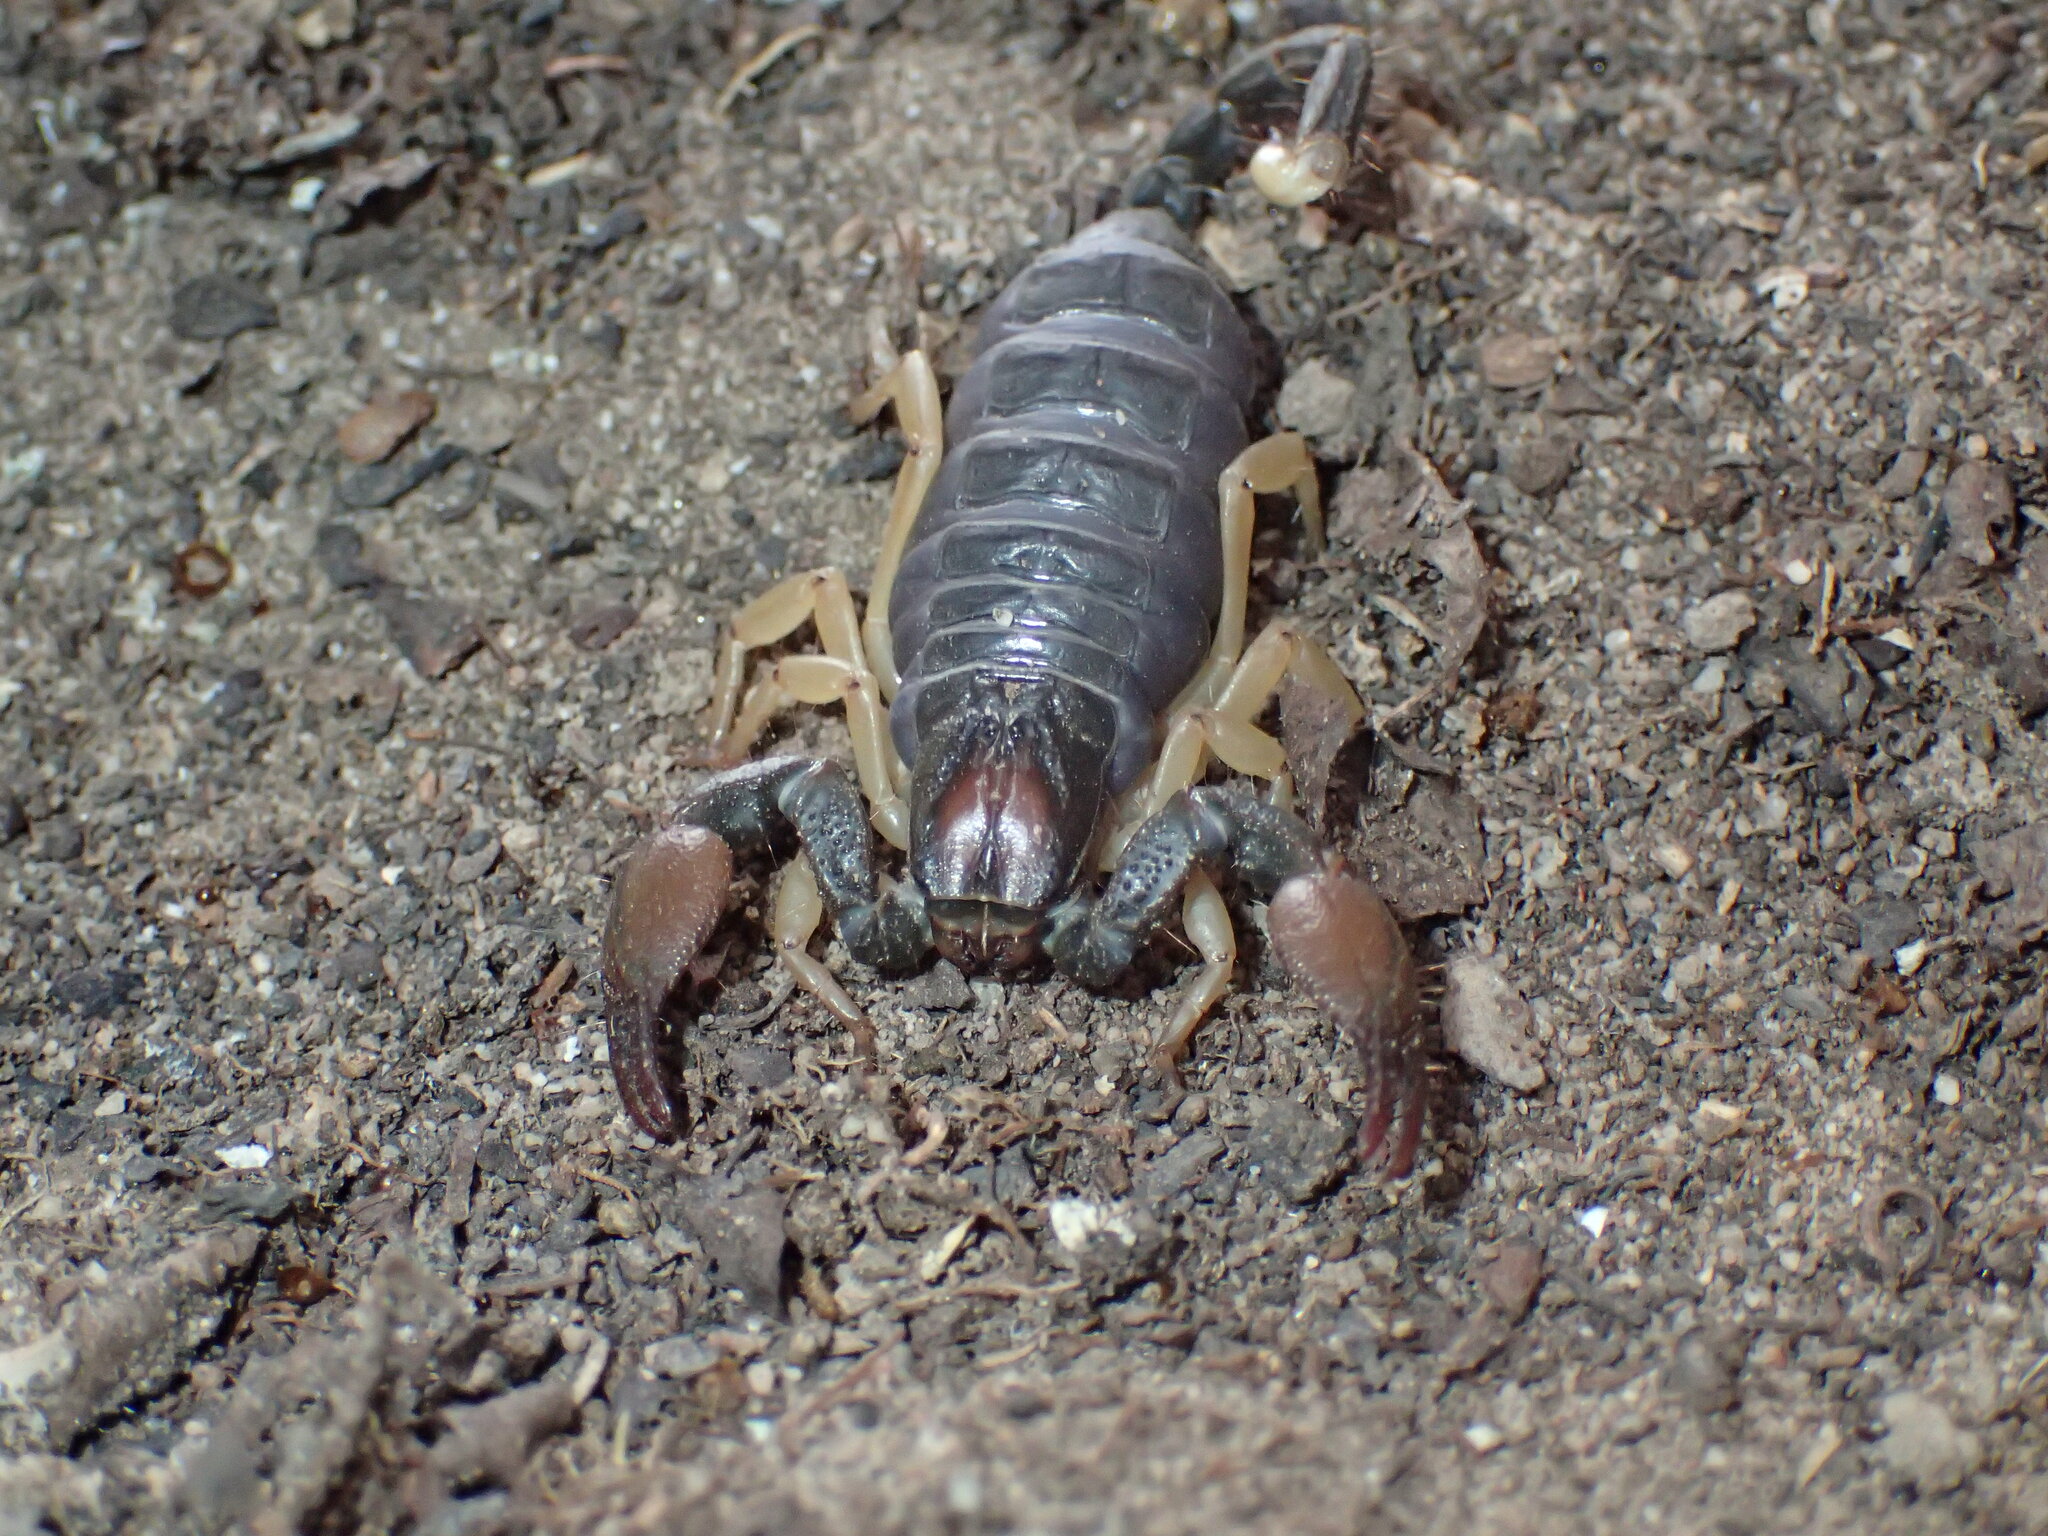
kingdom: Animalia
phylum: Arthropoda
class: Arachnida
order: Scorpiones
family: Scorpionidae
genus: Opistophthalmus
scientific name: Opistophthalmus pallipes
